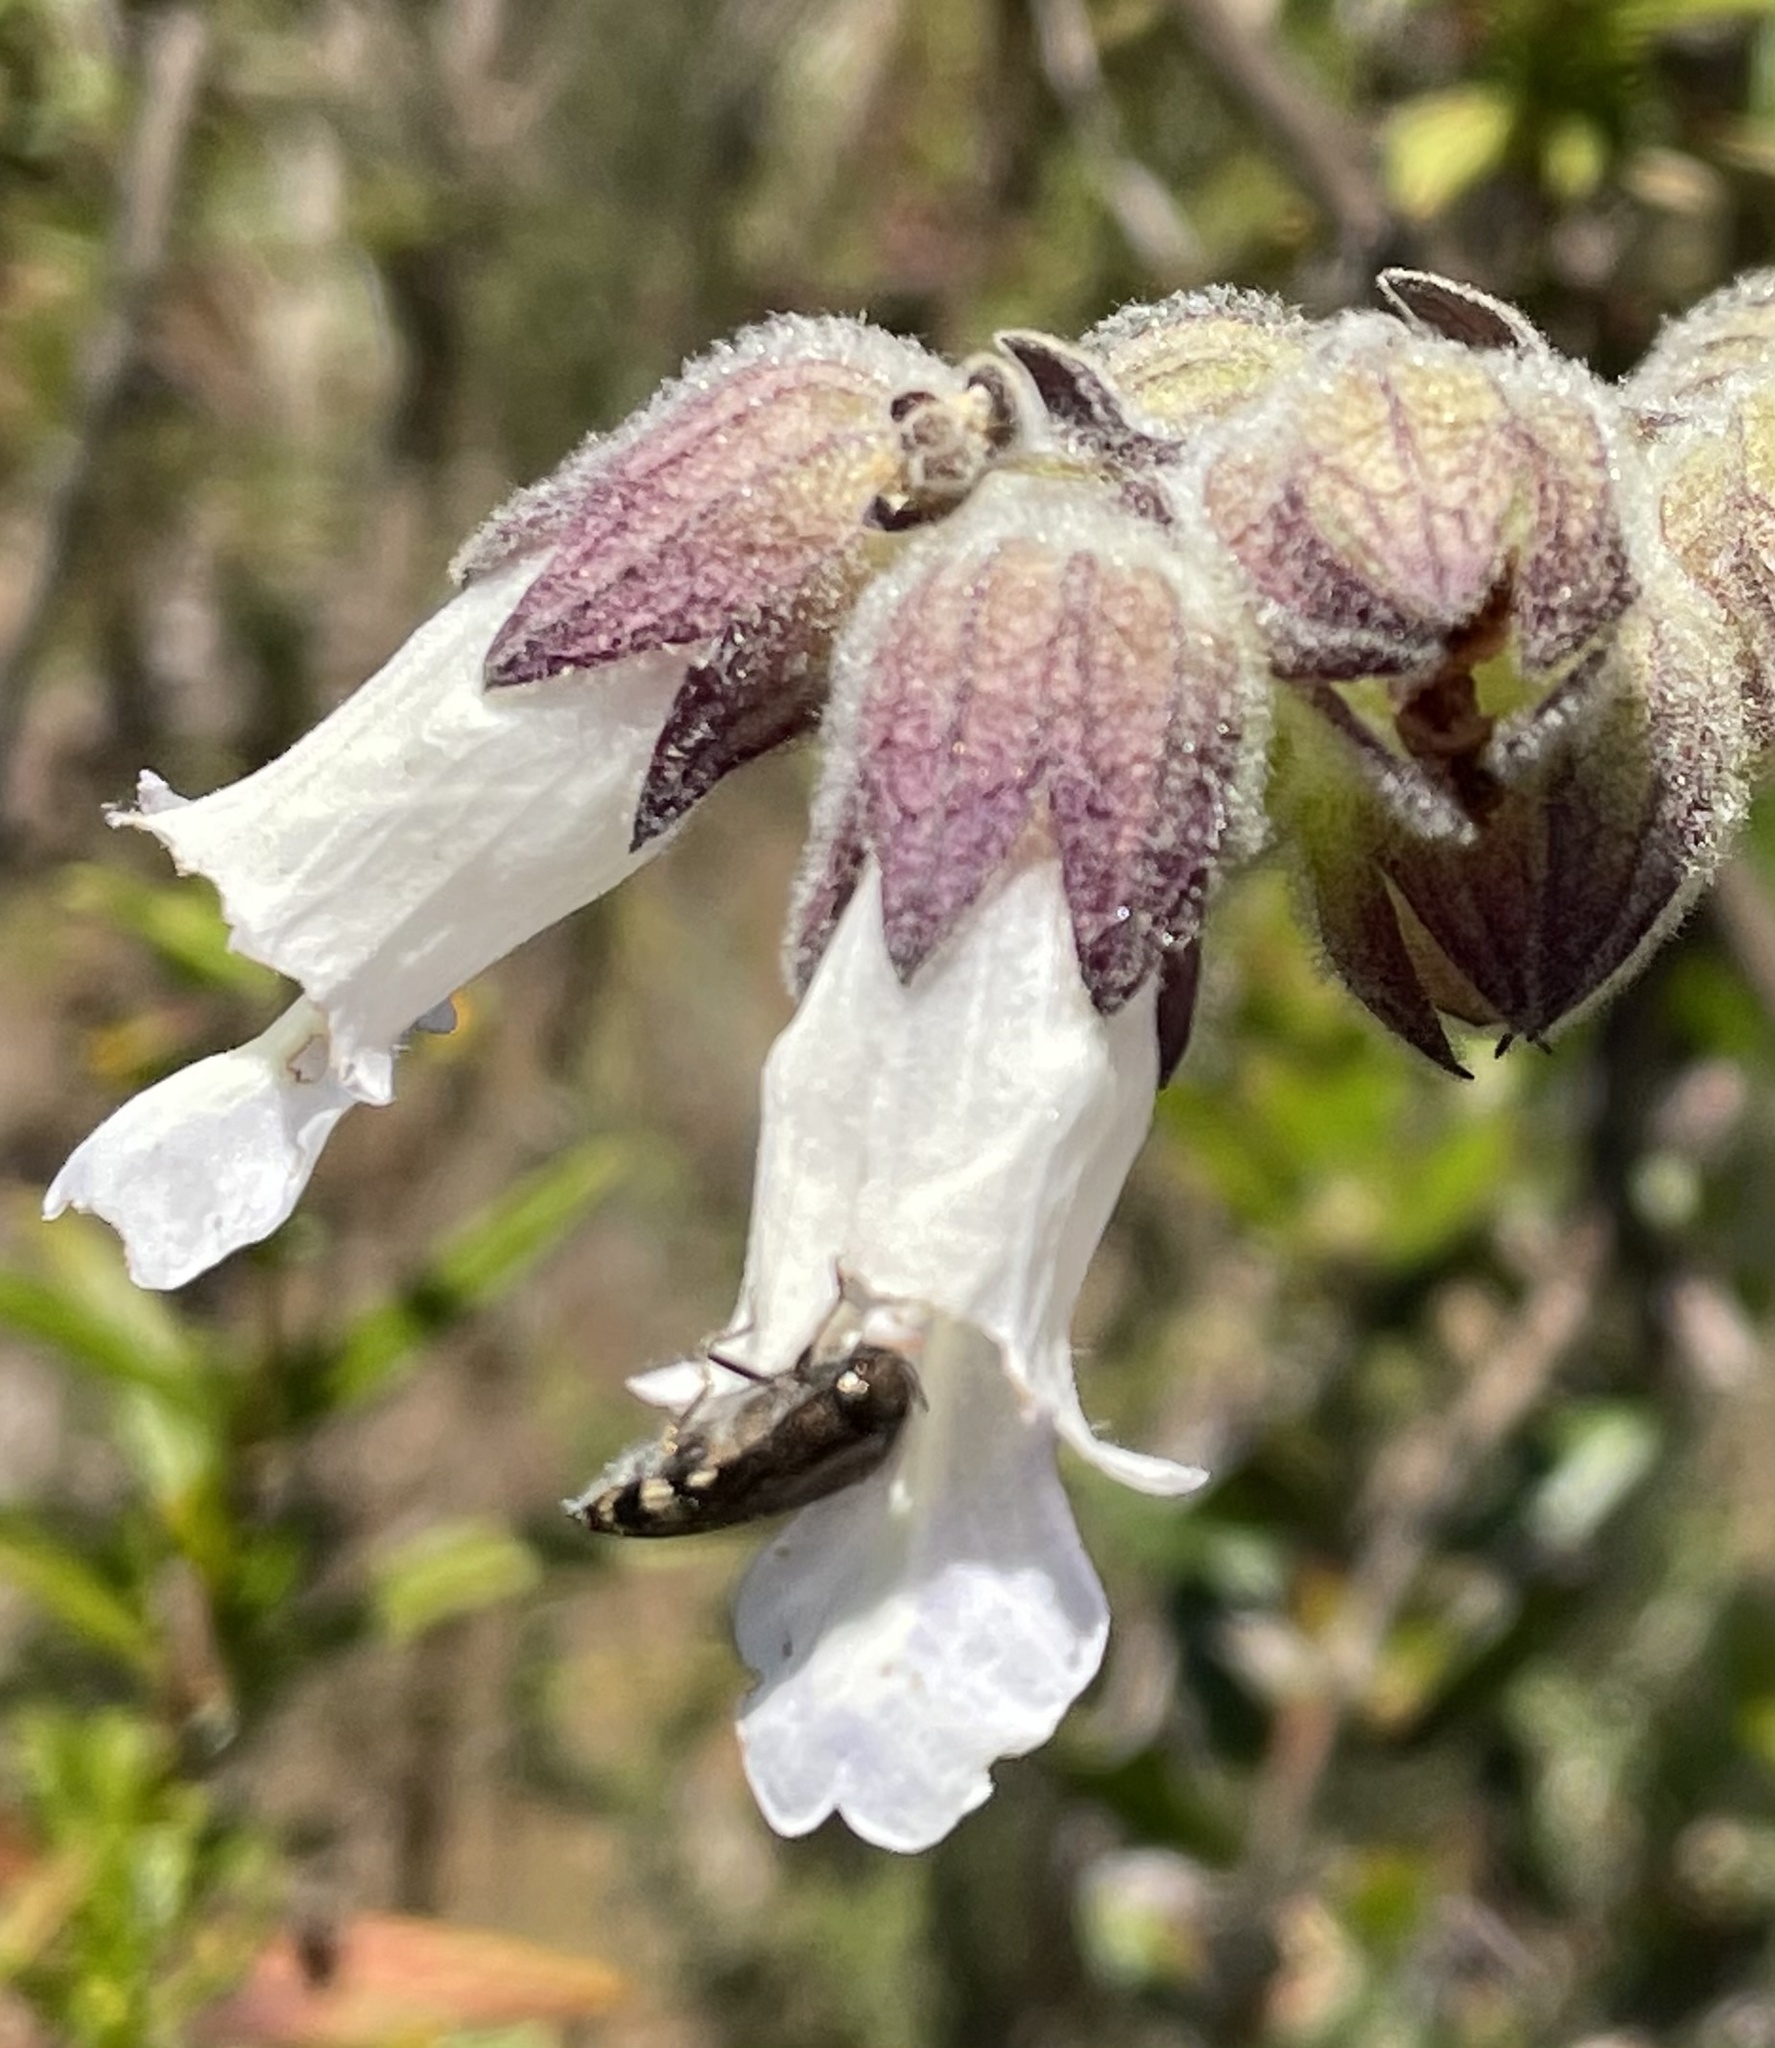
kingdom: Plantae
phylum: Tracheophyta
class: Magnoliopsida
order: Lamiales
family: Lamiaceae
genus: Lepechinia
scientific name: Lepechinia calycina
